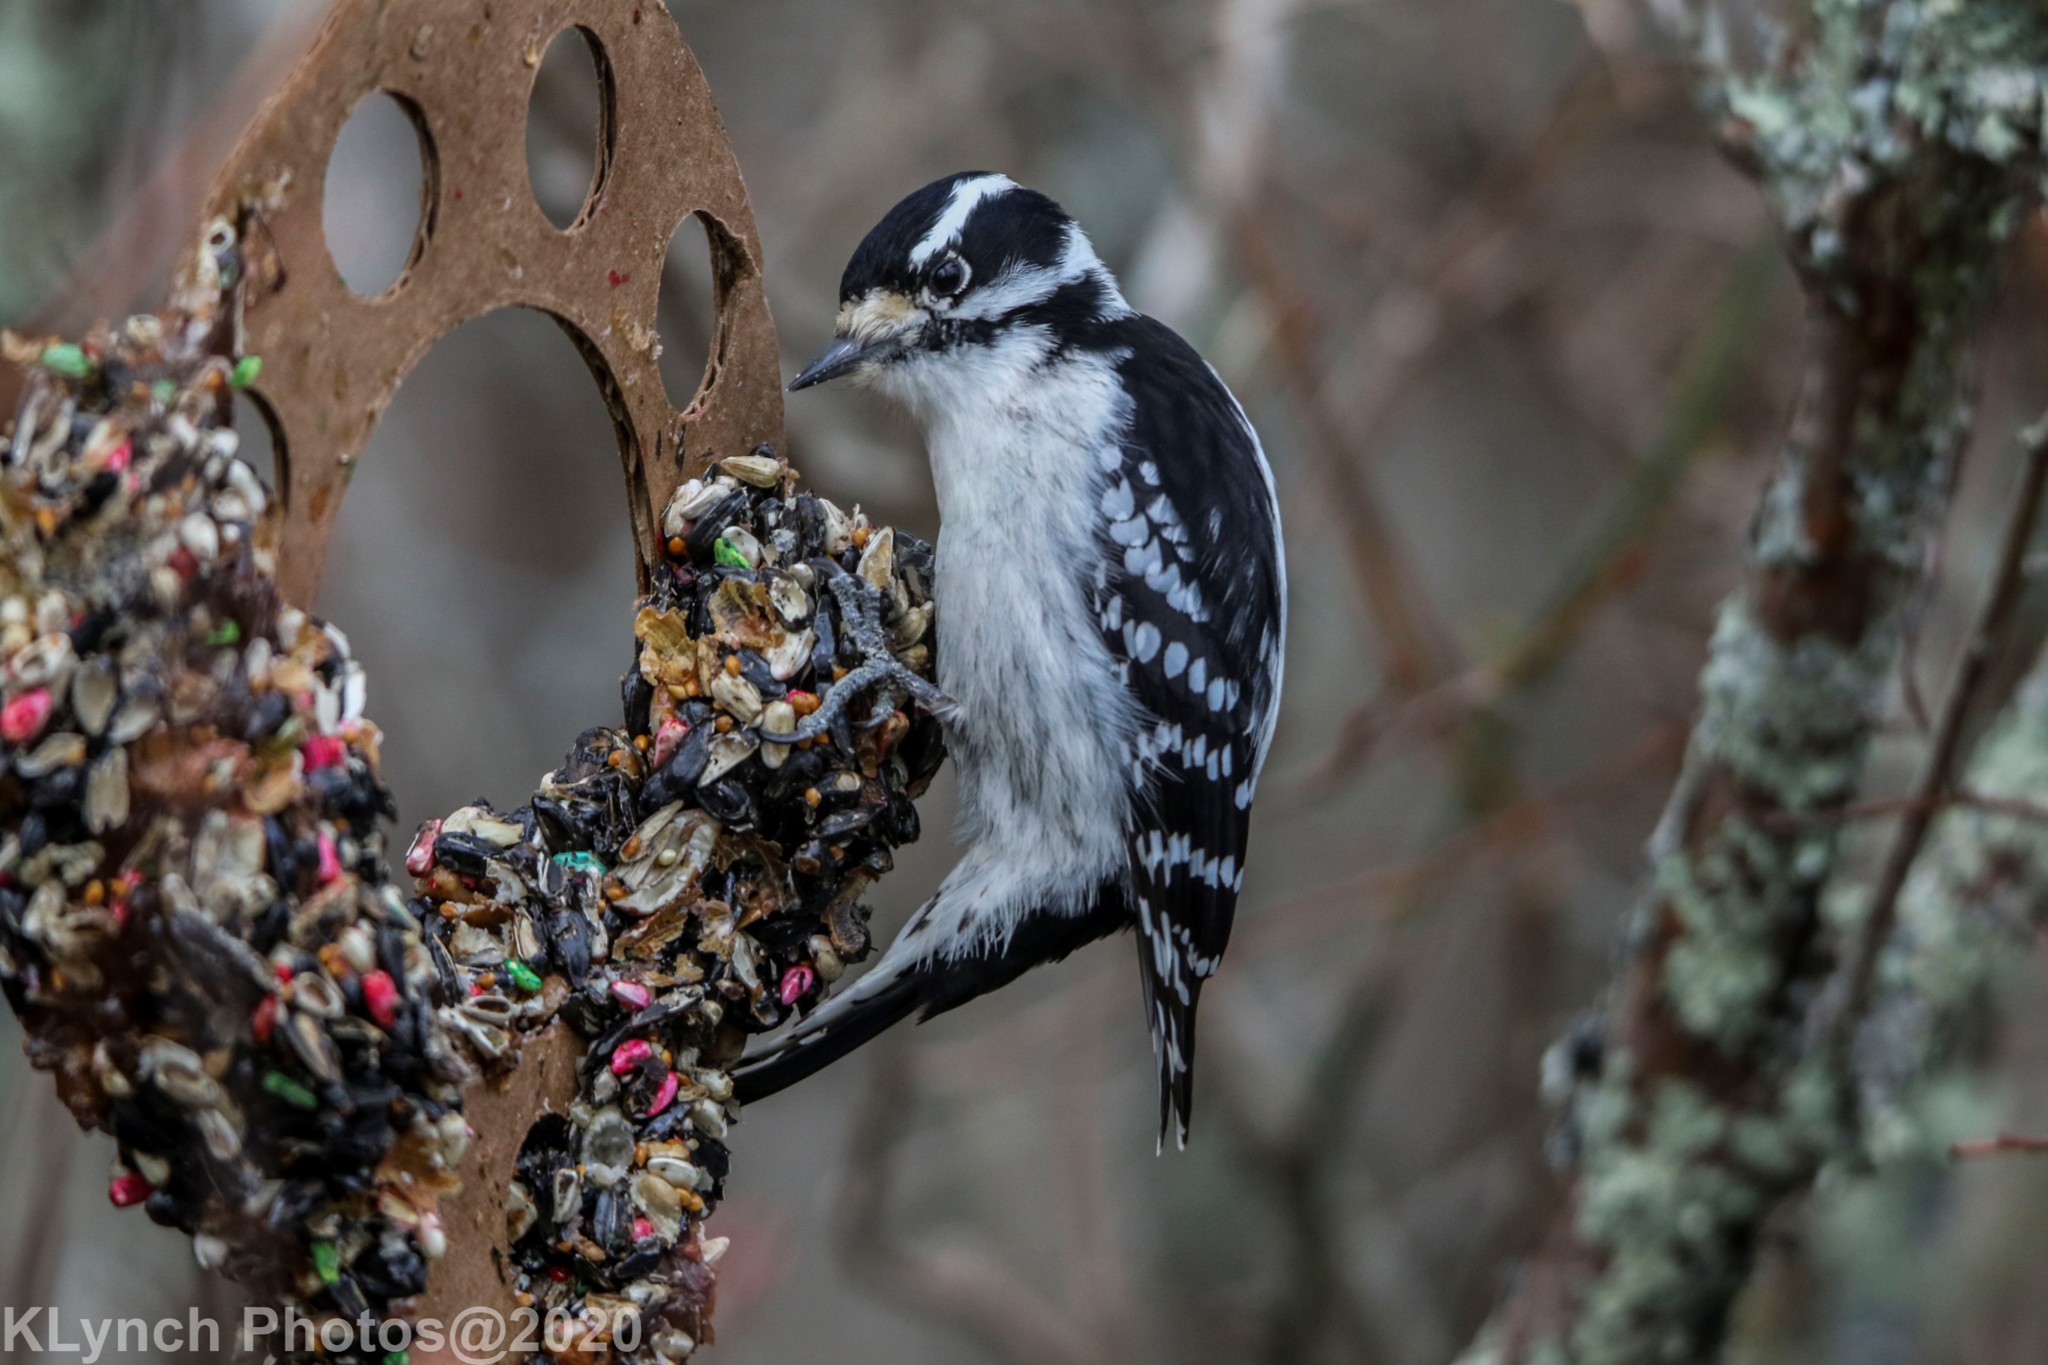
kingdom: Animalia
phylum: Chordata
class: Aves
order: Piciformes
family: Picidae
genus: Dryobates
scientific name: Dryobates pubescens
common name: Downy woodpecker
